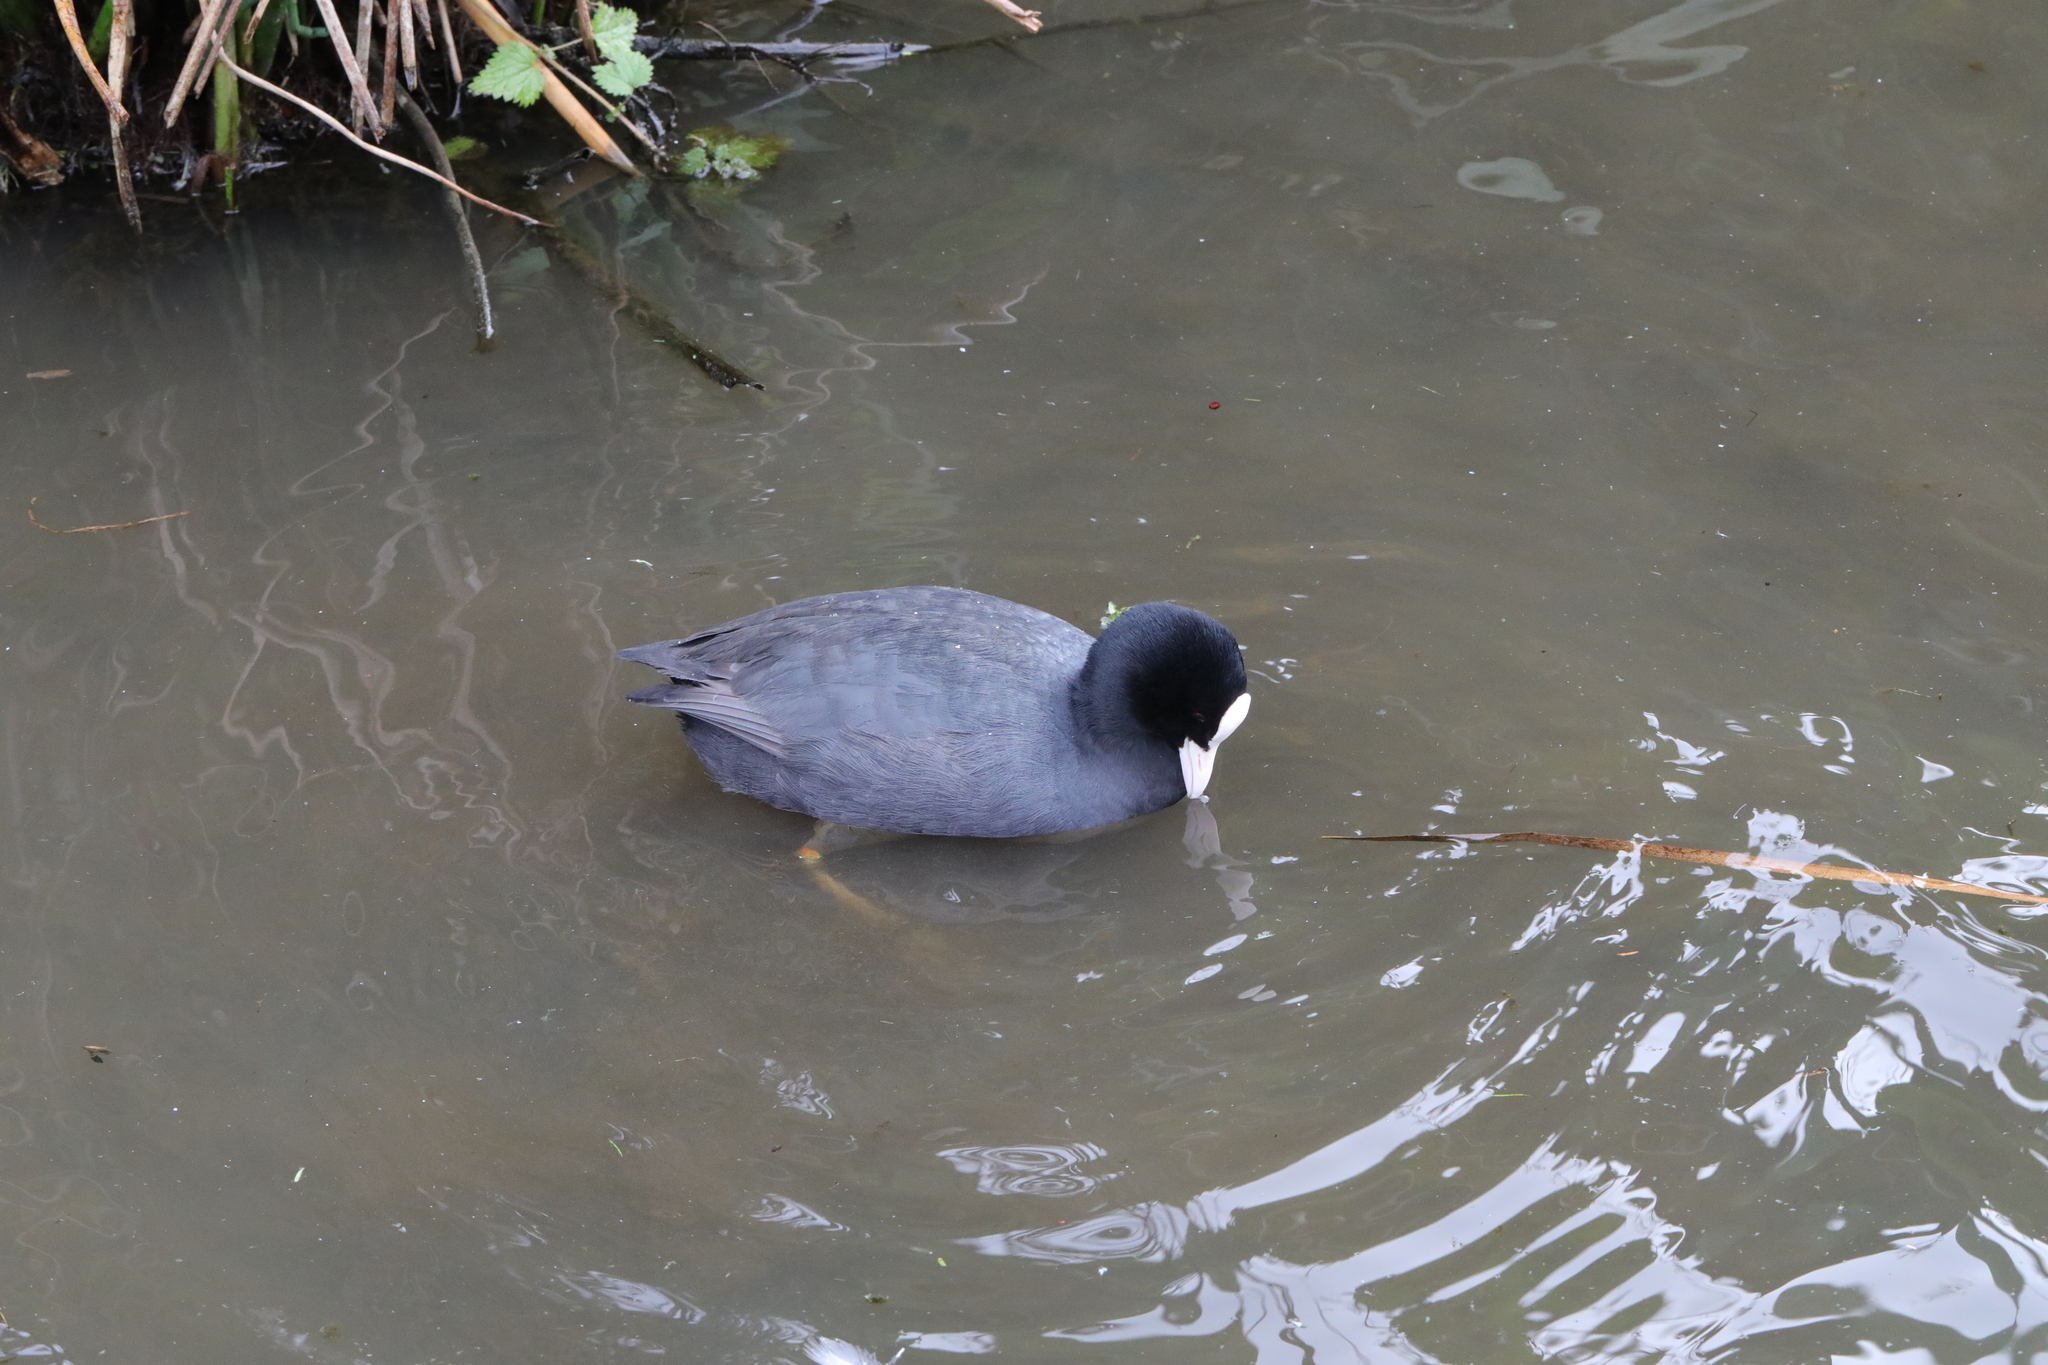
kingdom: Animalia
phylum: Chordata
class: Aves
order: Gruiformes
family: Rallidae
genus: Fulica
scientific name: Fulica atra
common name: Eurasian coot
